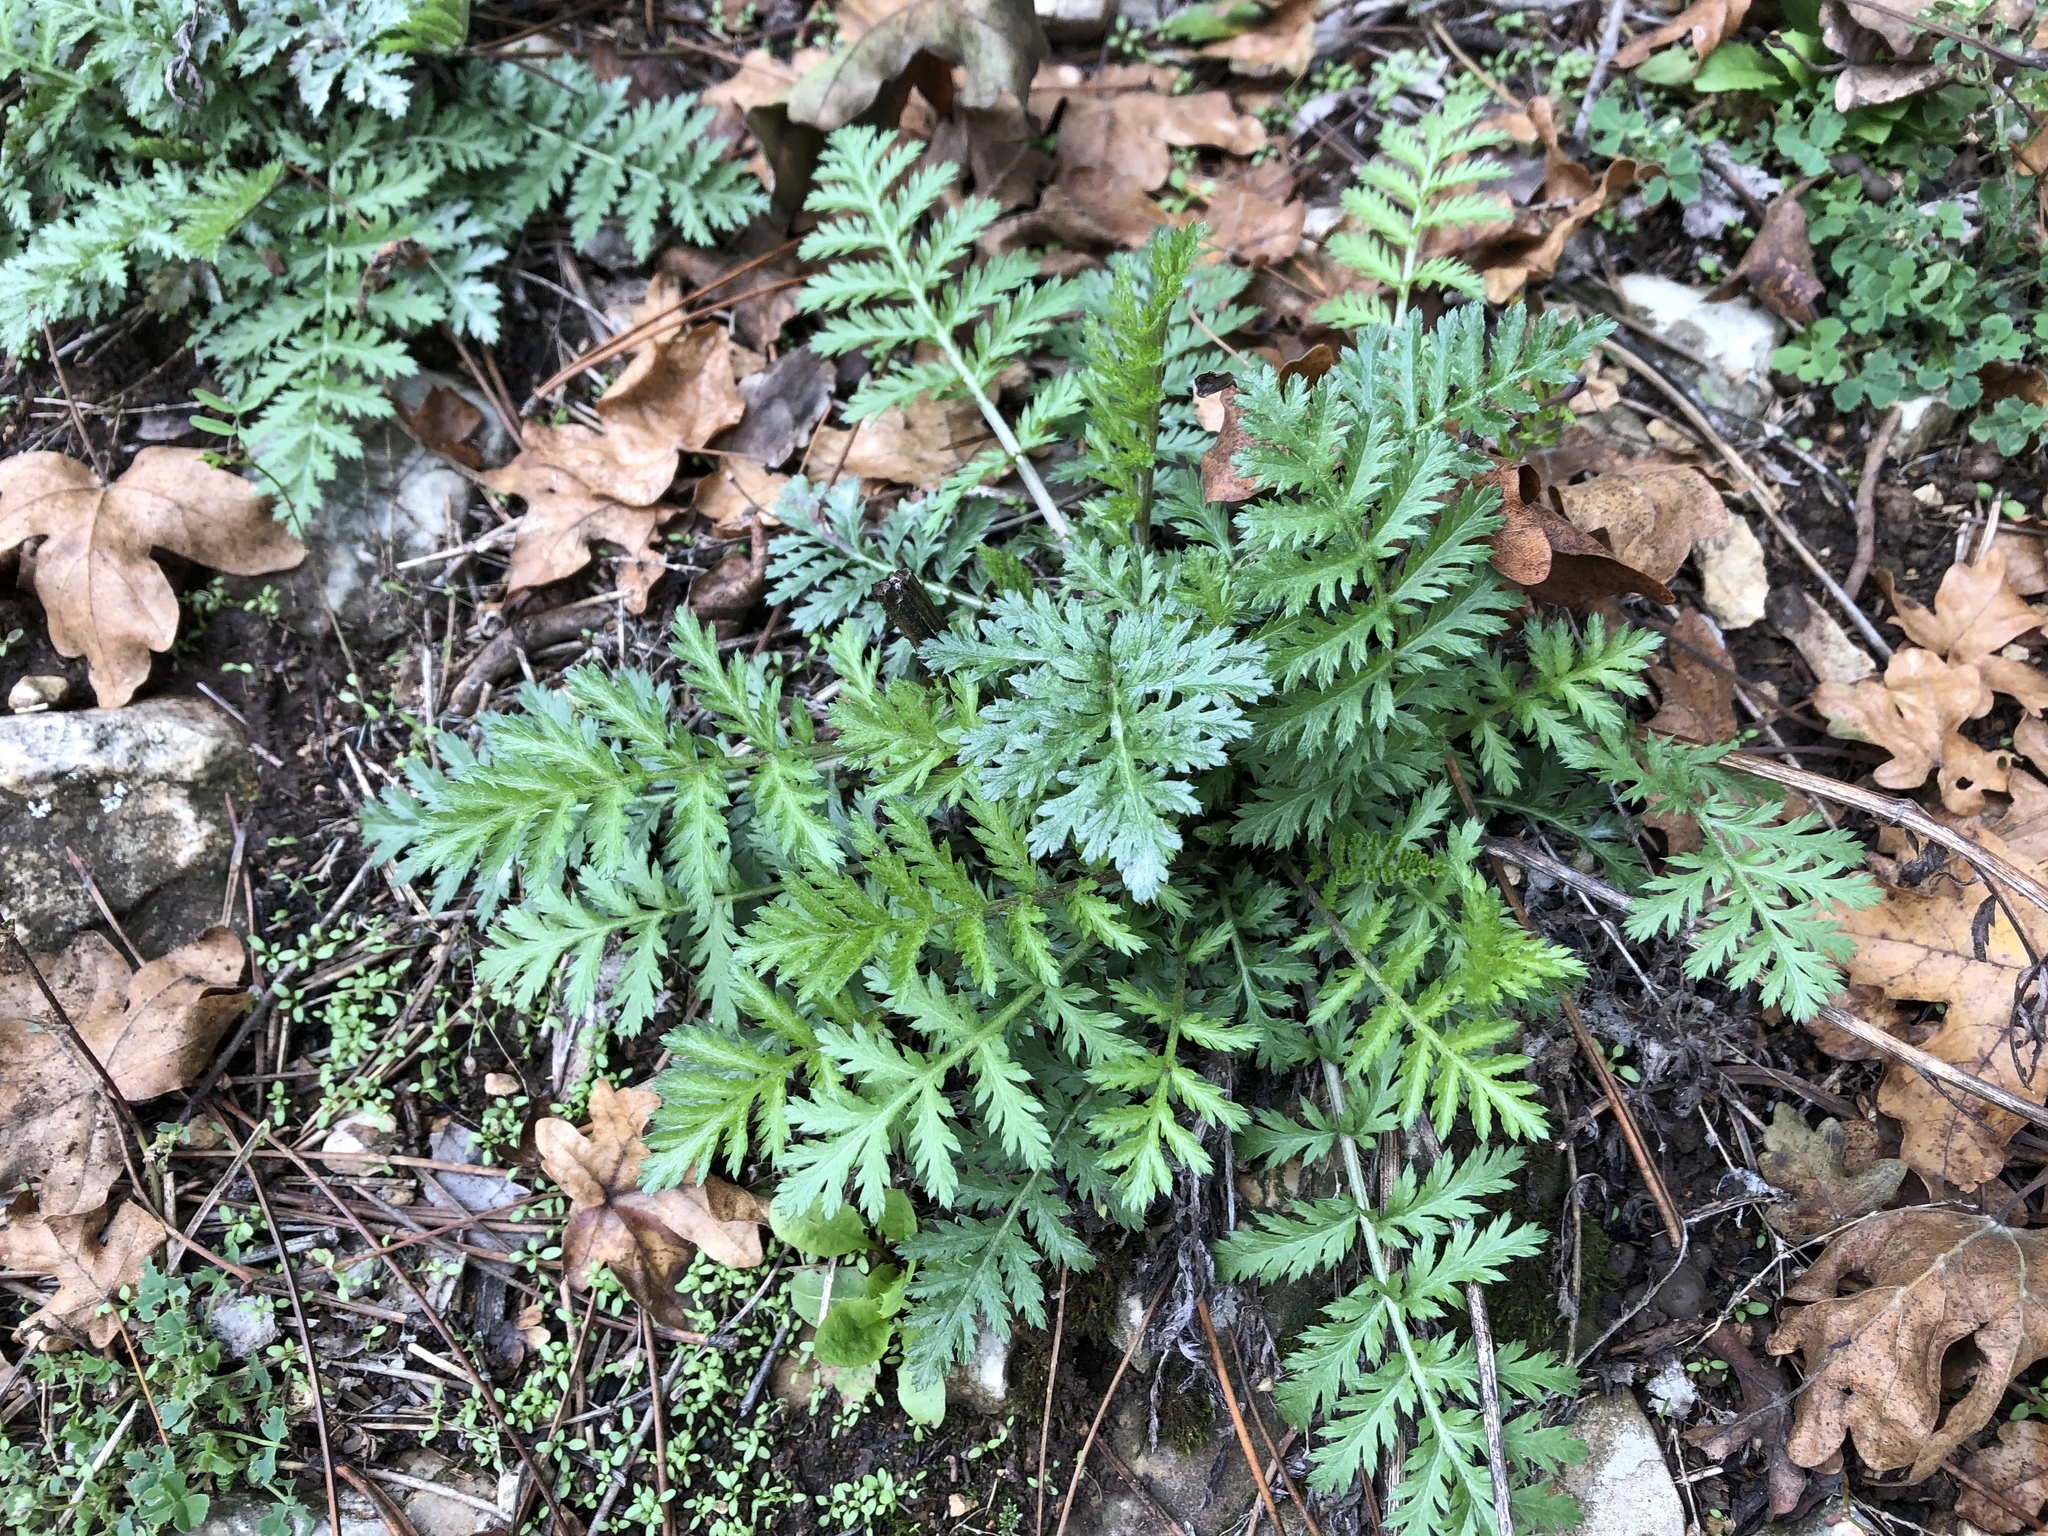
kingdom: Plantae
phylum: Tracheophyta
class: Magnoliopsida
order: Asterales
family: Asteraceae
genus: Tanacetum
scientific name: Tanacetum vulgare
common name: Common tansy
